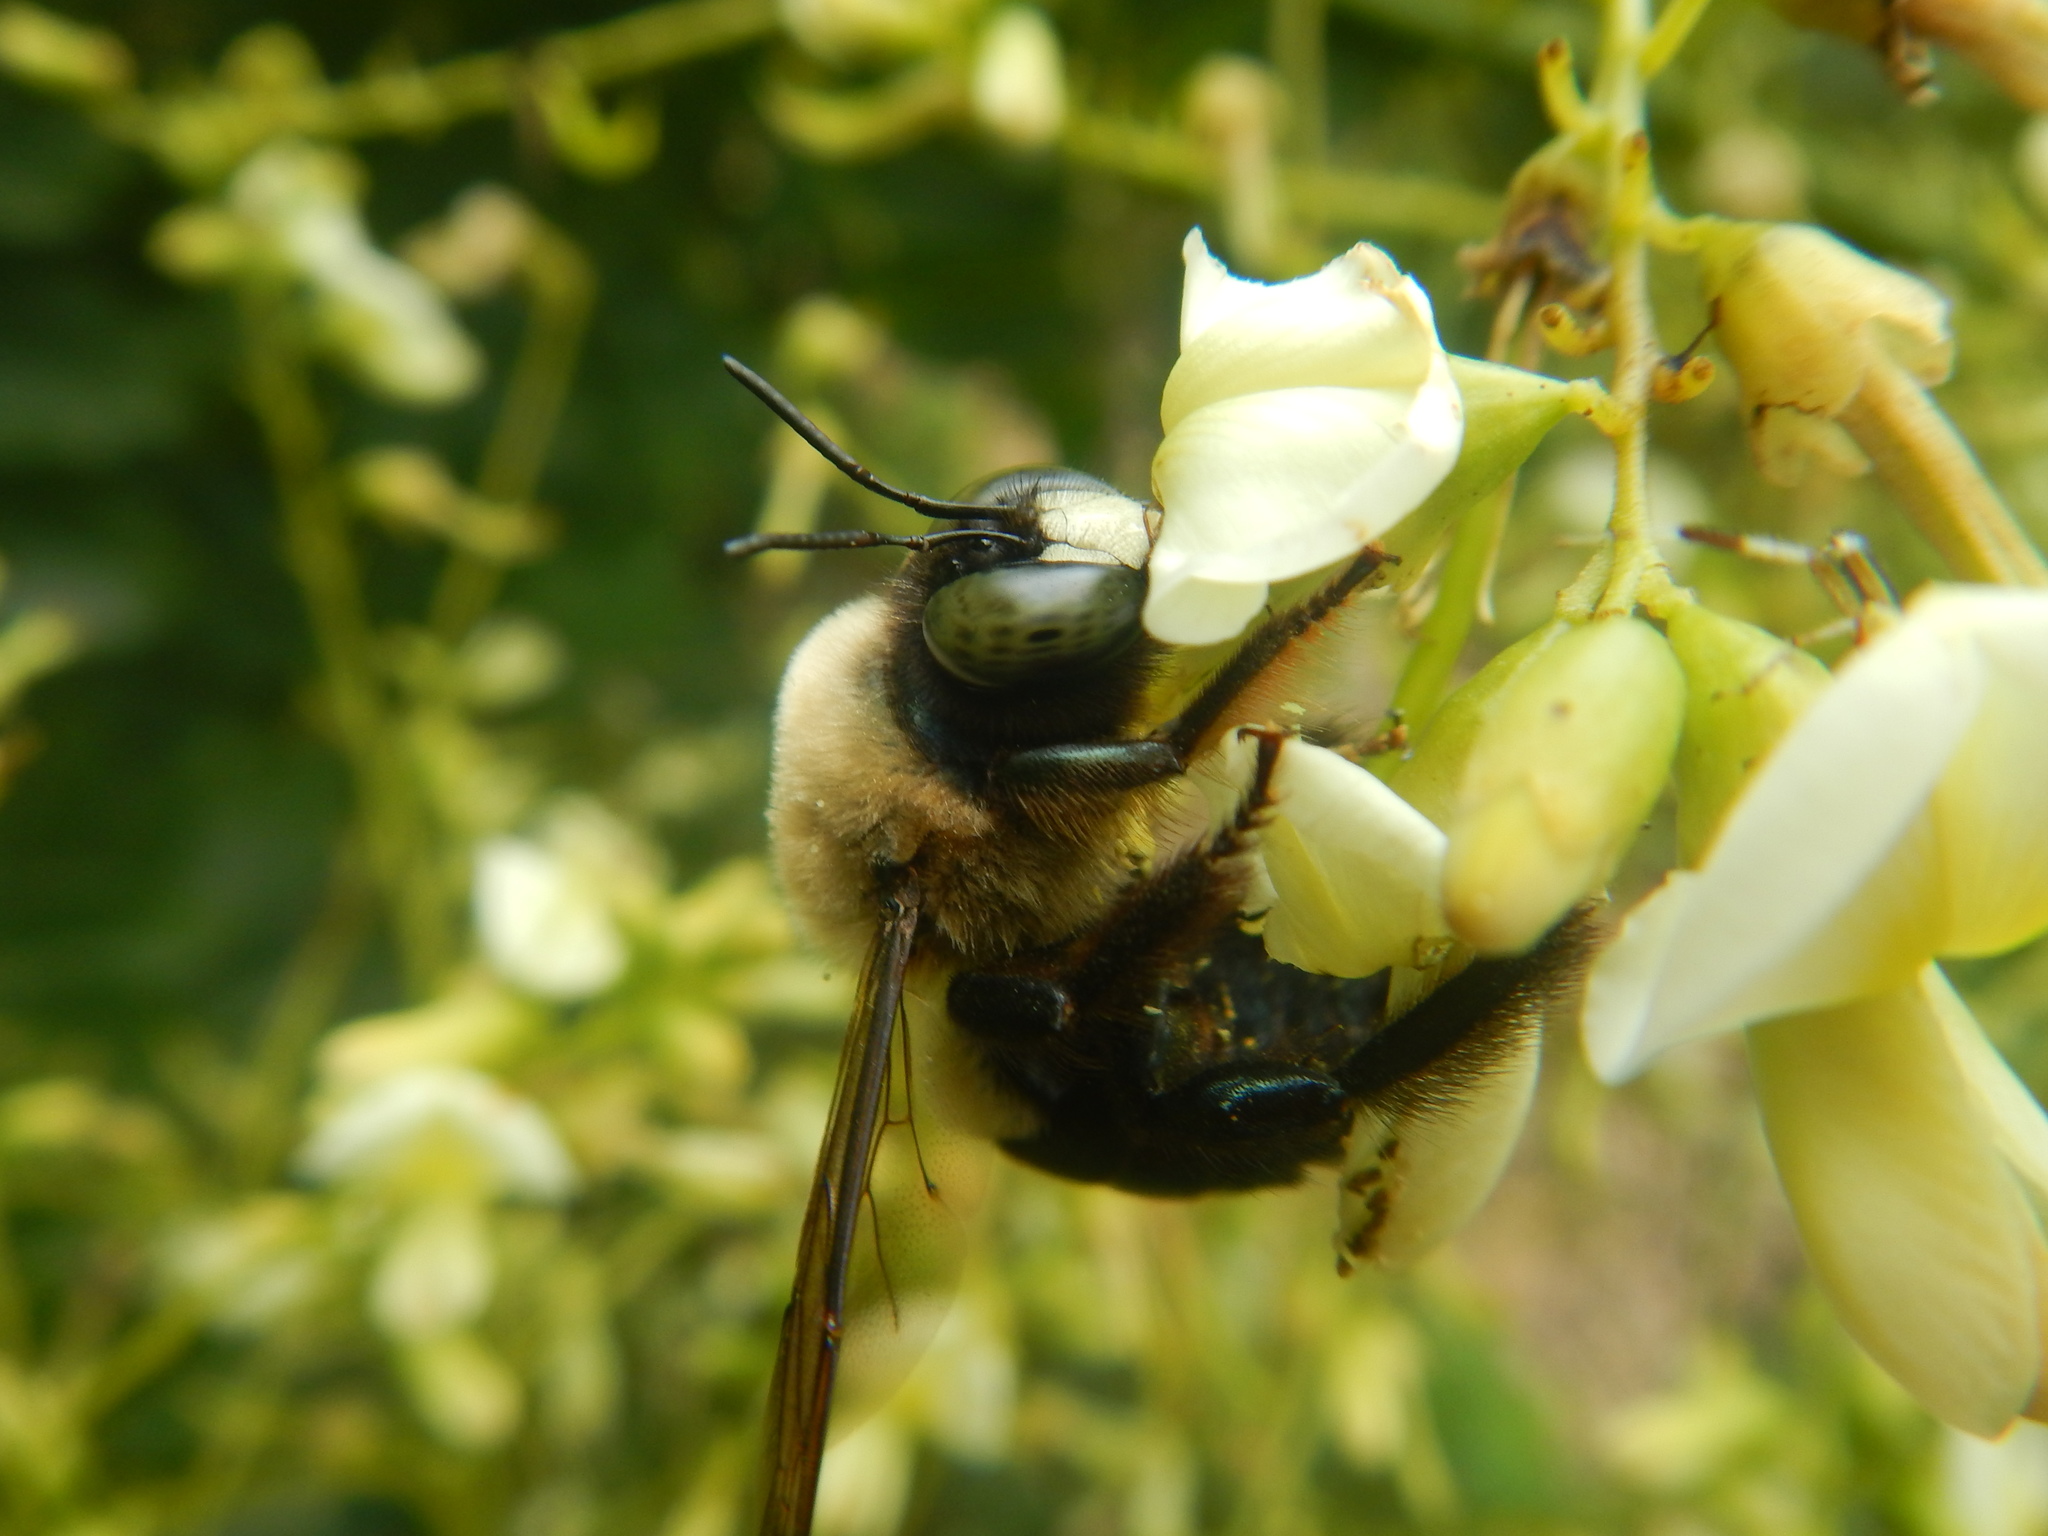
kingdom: Animalia
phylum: Arthropoda
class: Insecta
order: Hymenoptera
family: Apidae
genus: Xylocopa
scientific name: Xylocopa virginica
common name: Carpenter bee
